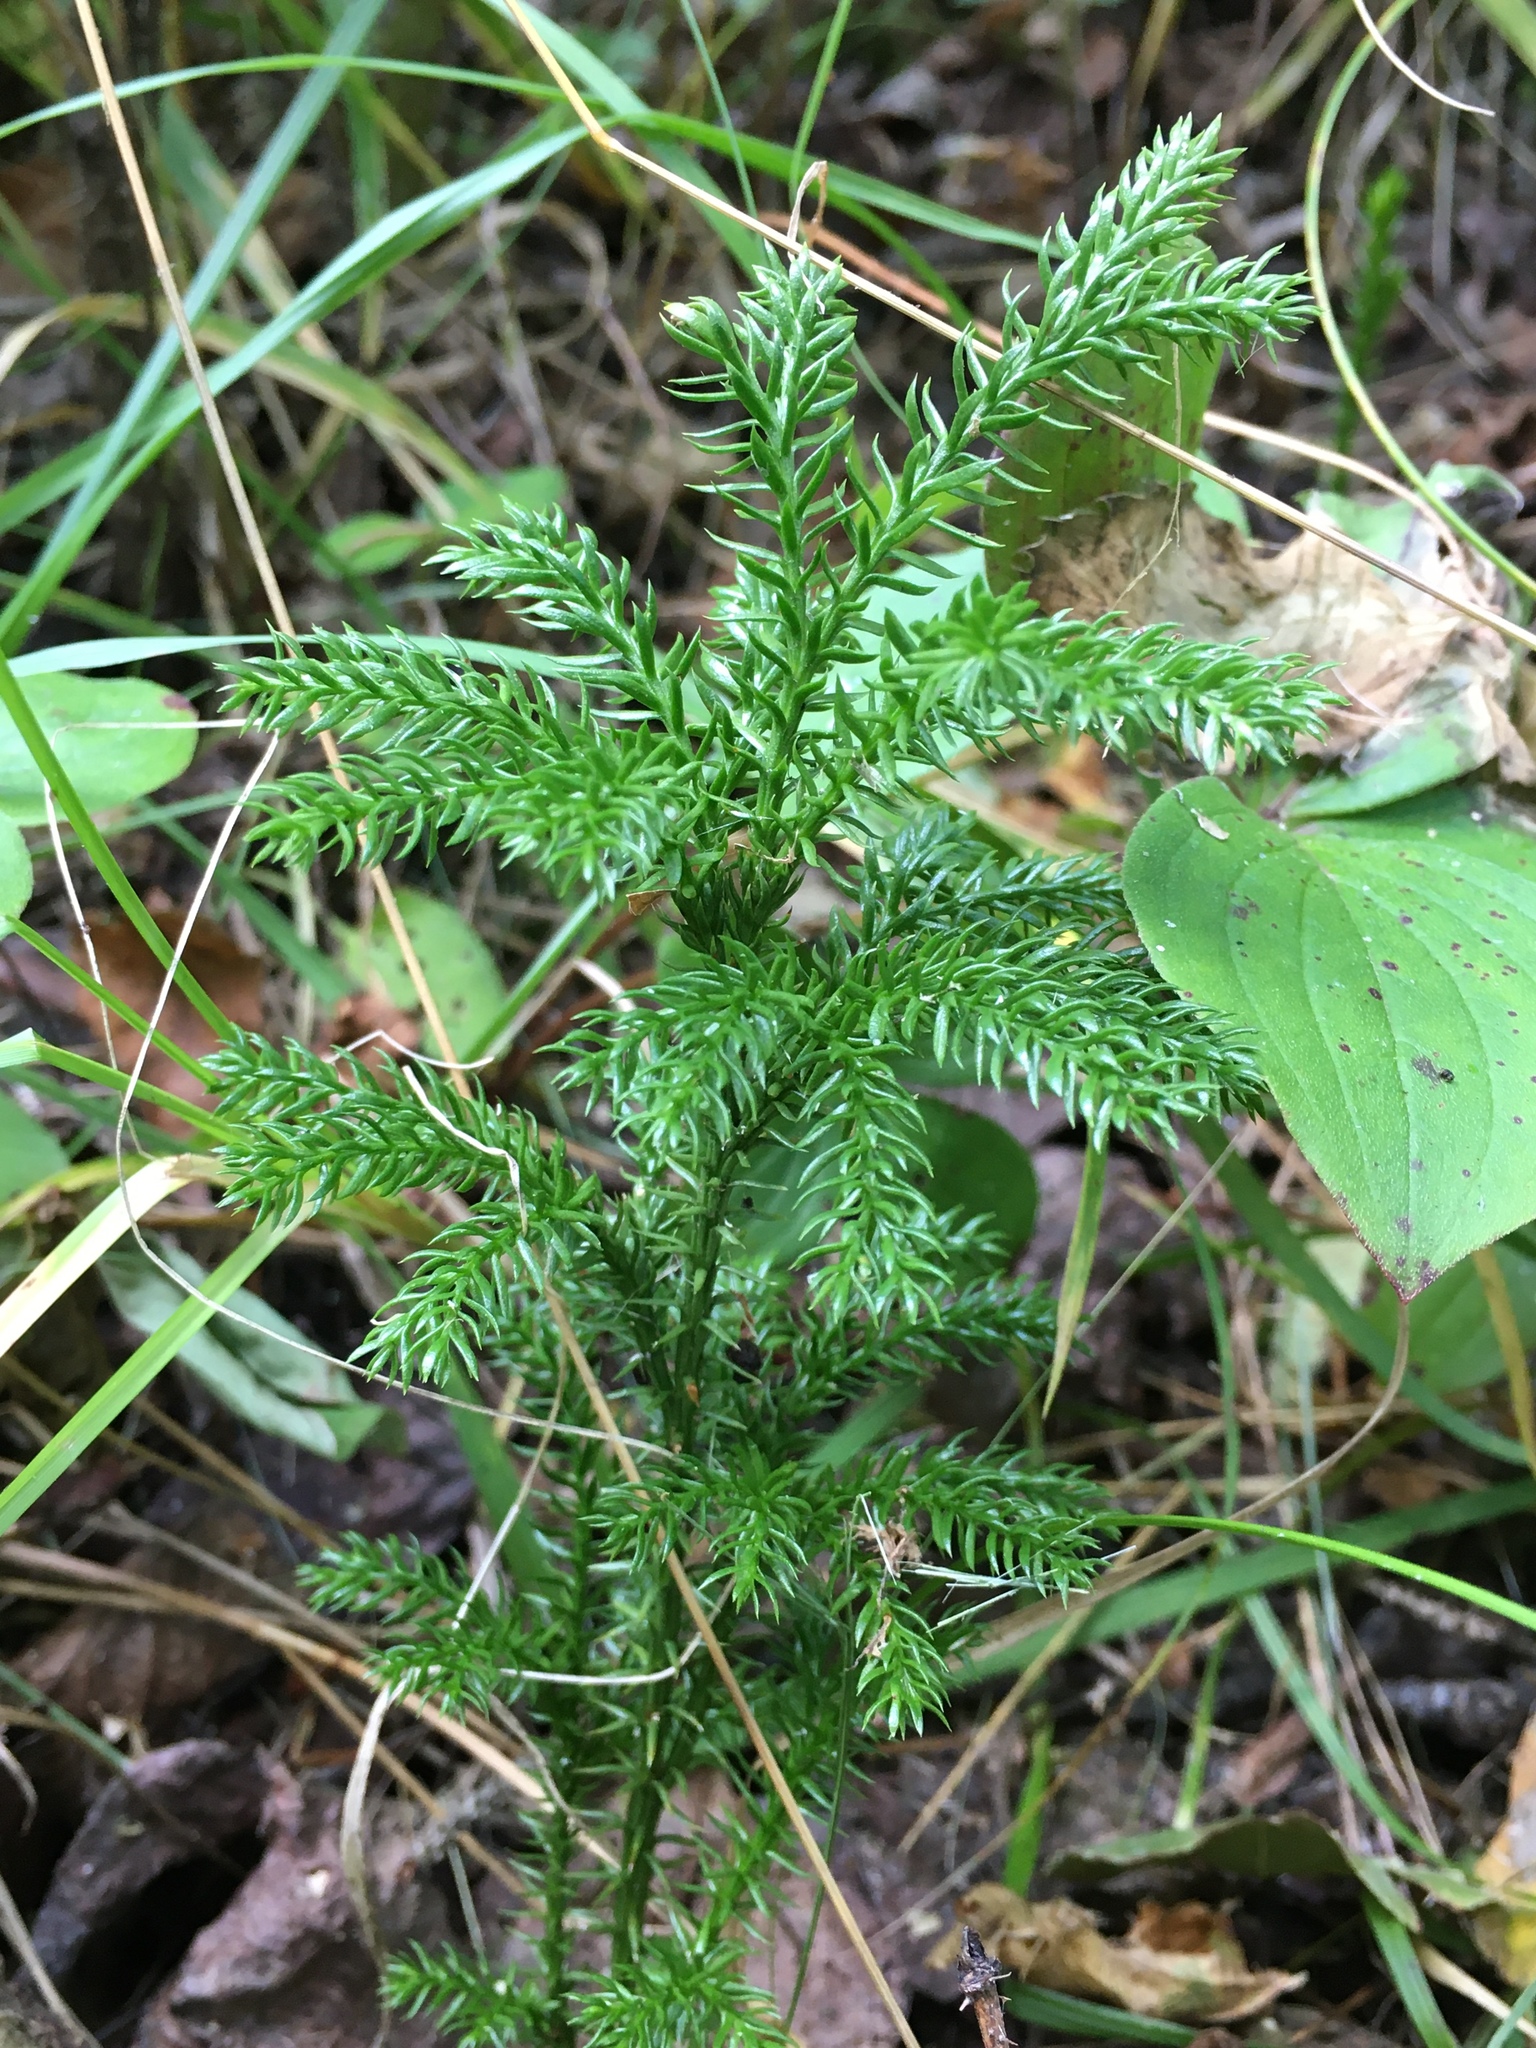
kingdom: Plantae
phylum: Tracheophyta
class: Lycopodiopsida
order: Lycopodiales
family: Lycopodiaceae
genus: Dendrolycopodium
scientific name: Dendrolycopodium dendroideum
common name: Northern tree-clubmoss
